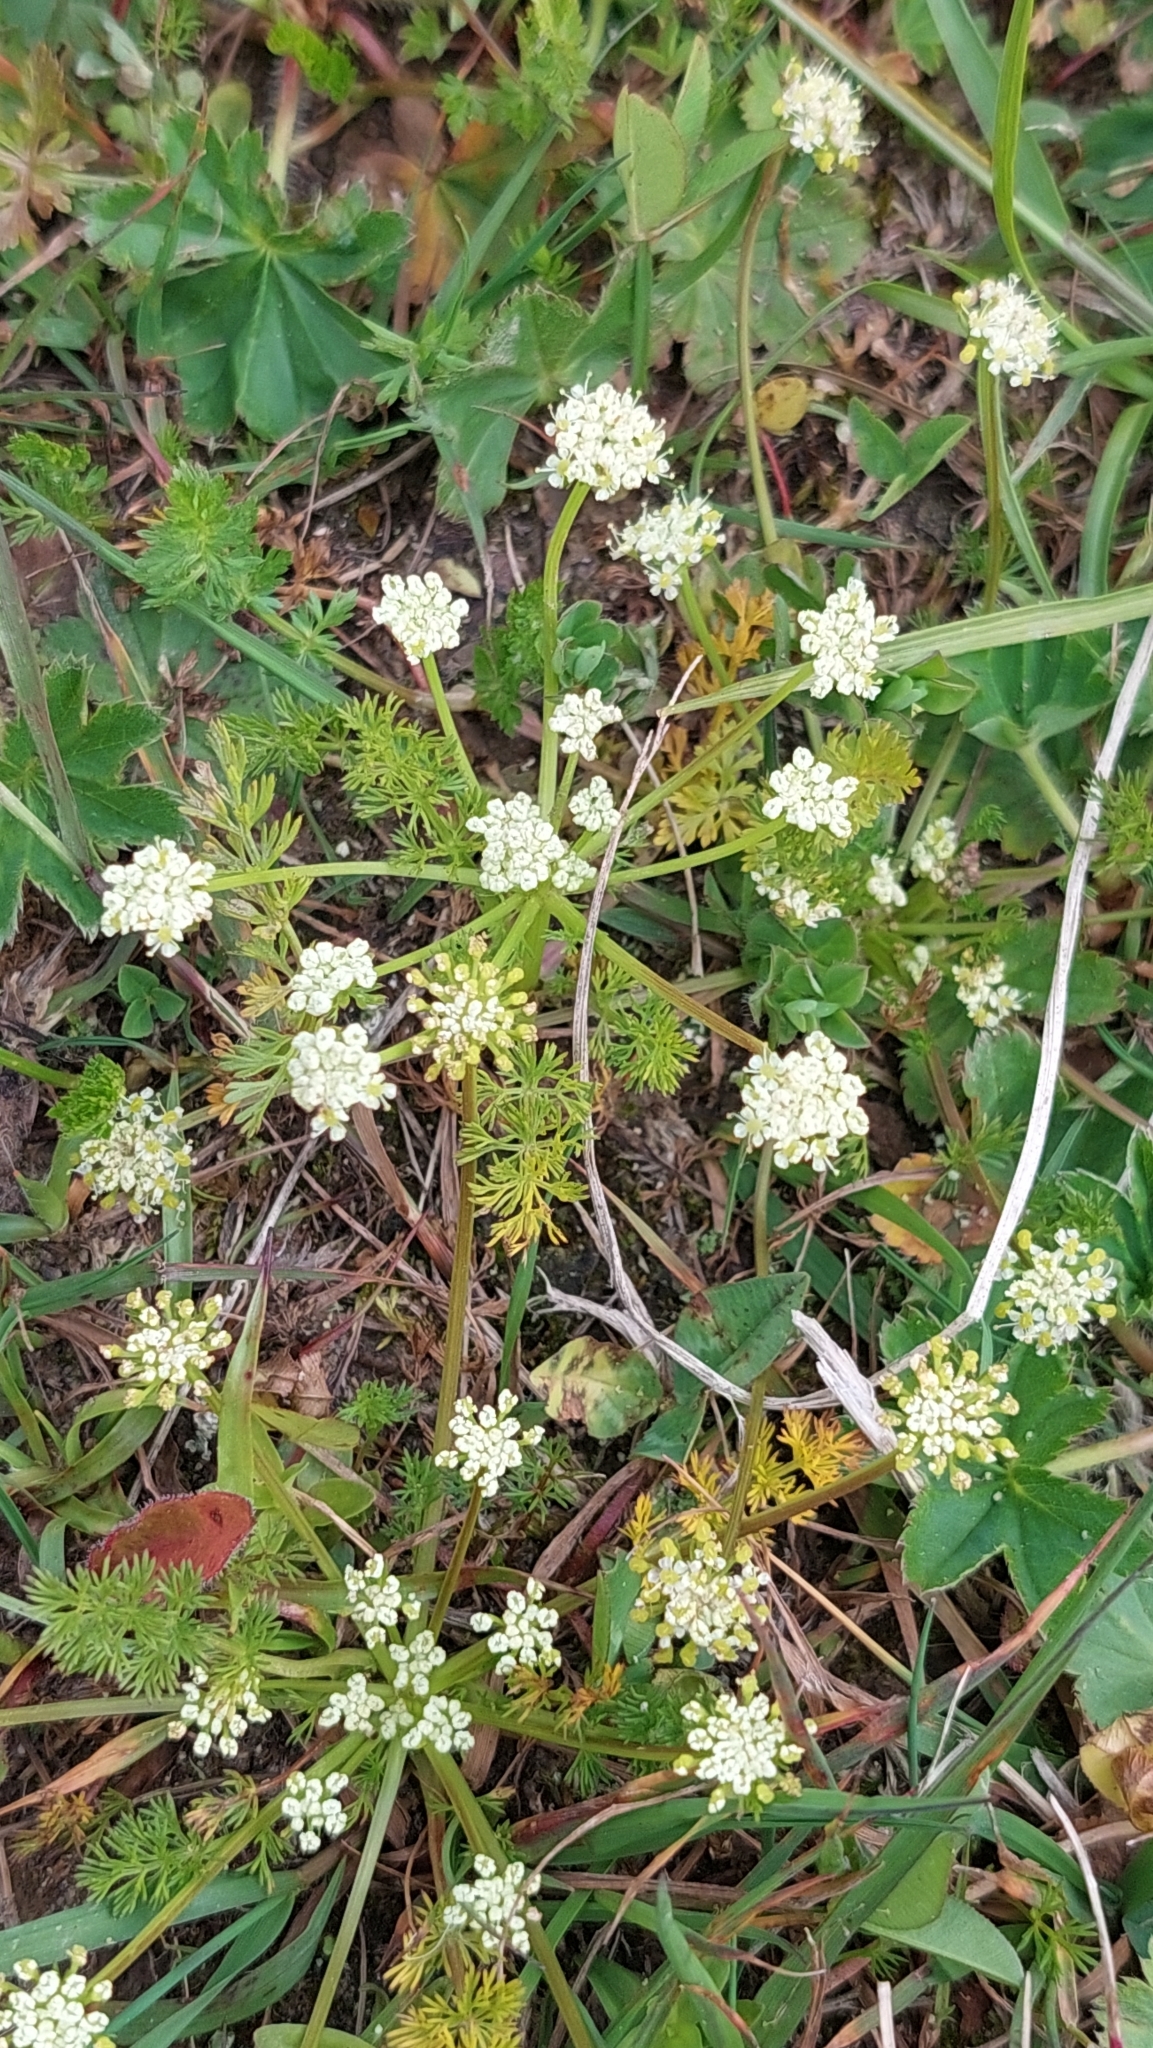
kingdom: Plantae
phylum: Tracheophyta
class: Magnoliopsida
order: Apiales
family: Apiaceae
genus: Chamaesciadium
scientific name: Chamaesciadium acaule
